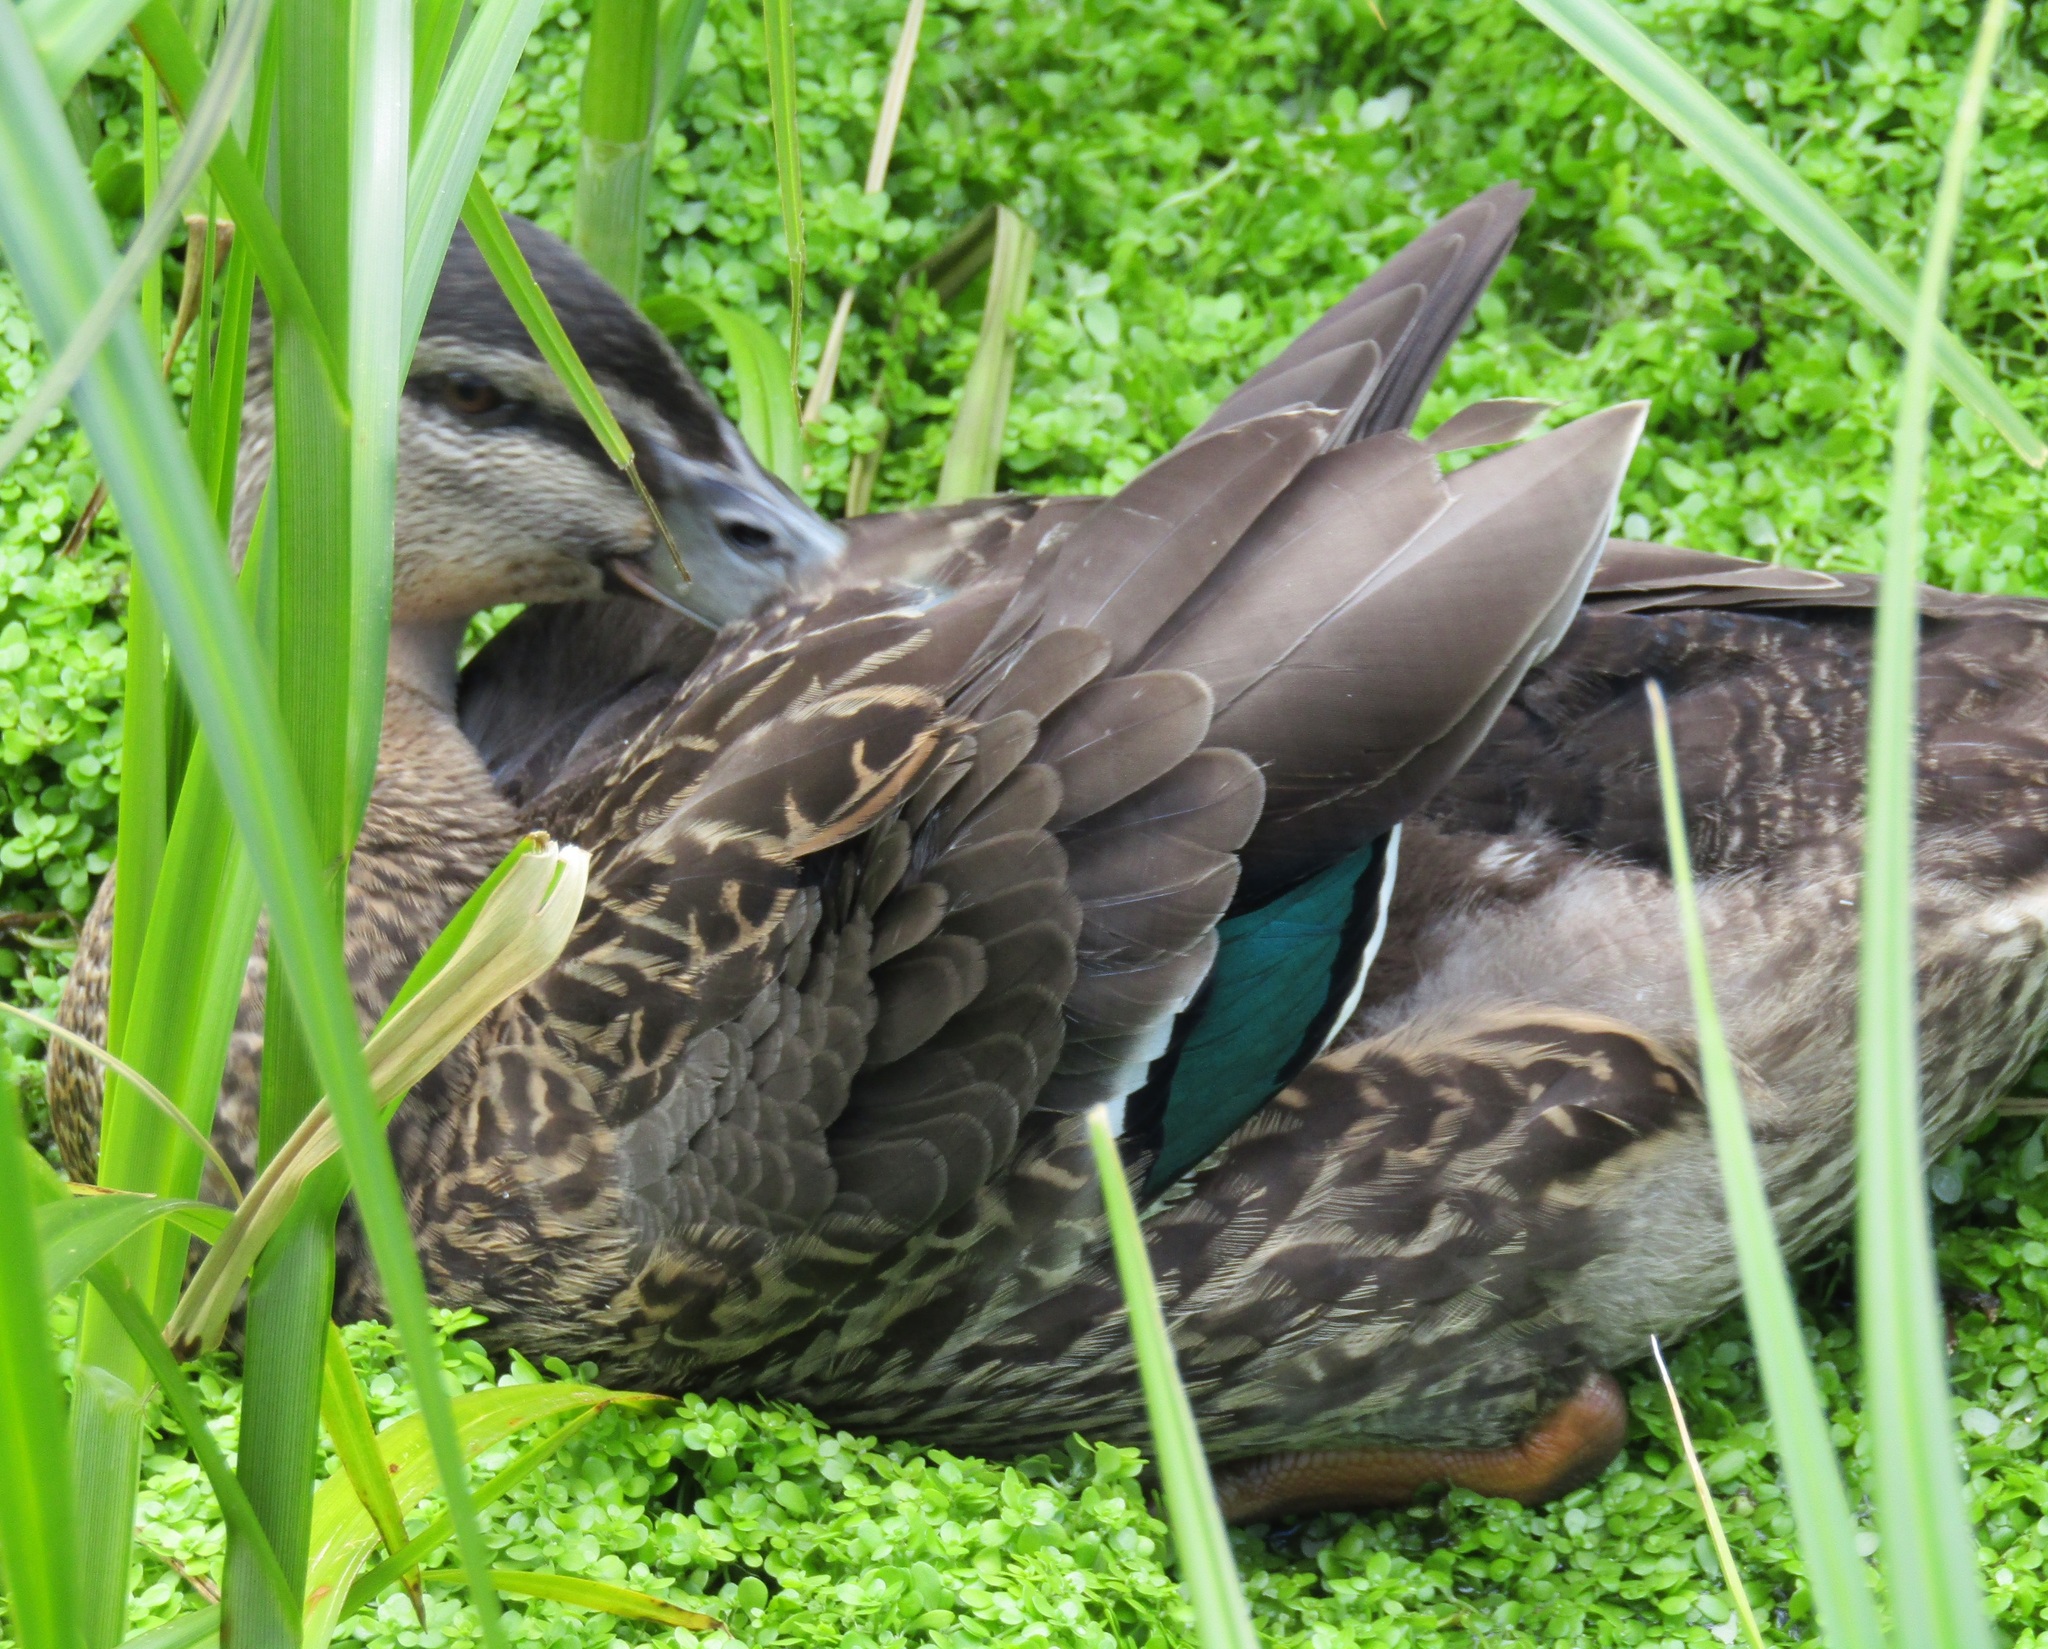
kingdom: Animalia
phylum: Chordata
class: Aves
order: Anseriformes
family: Anatidae
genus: Anas
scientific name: Anas
